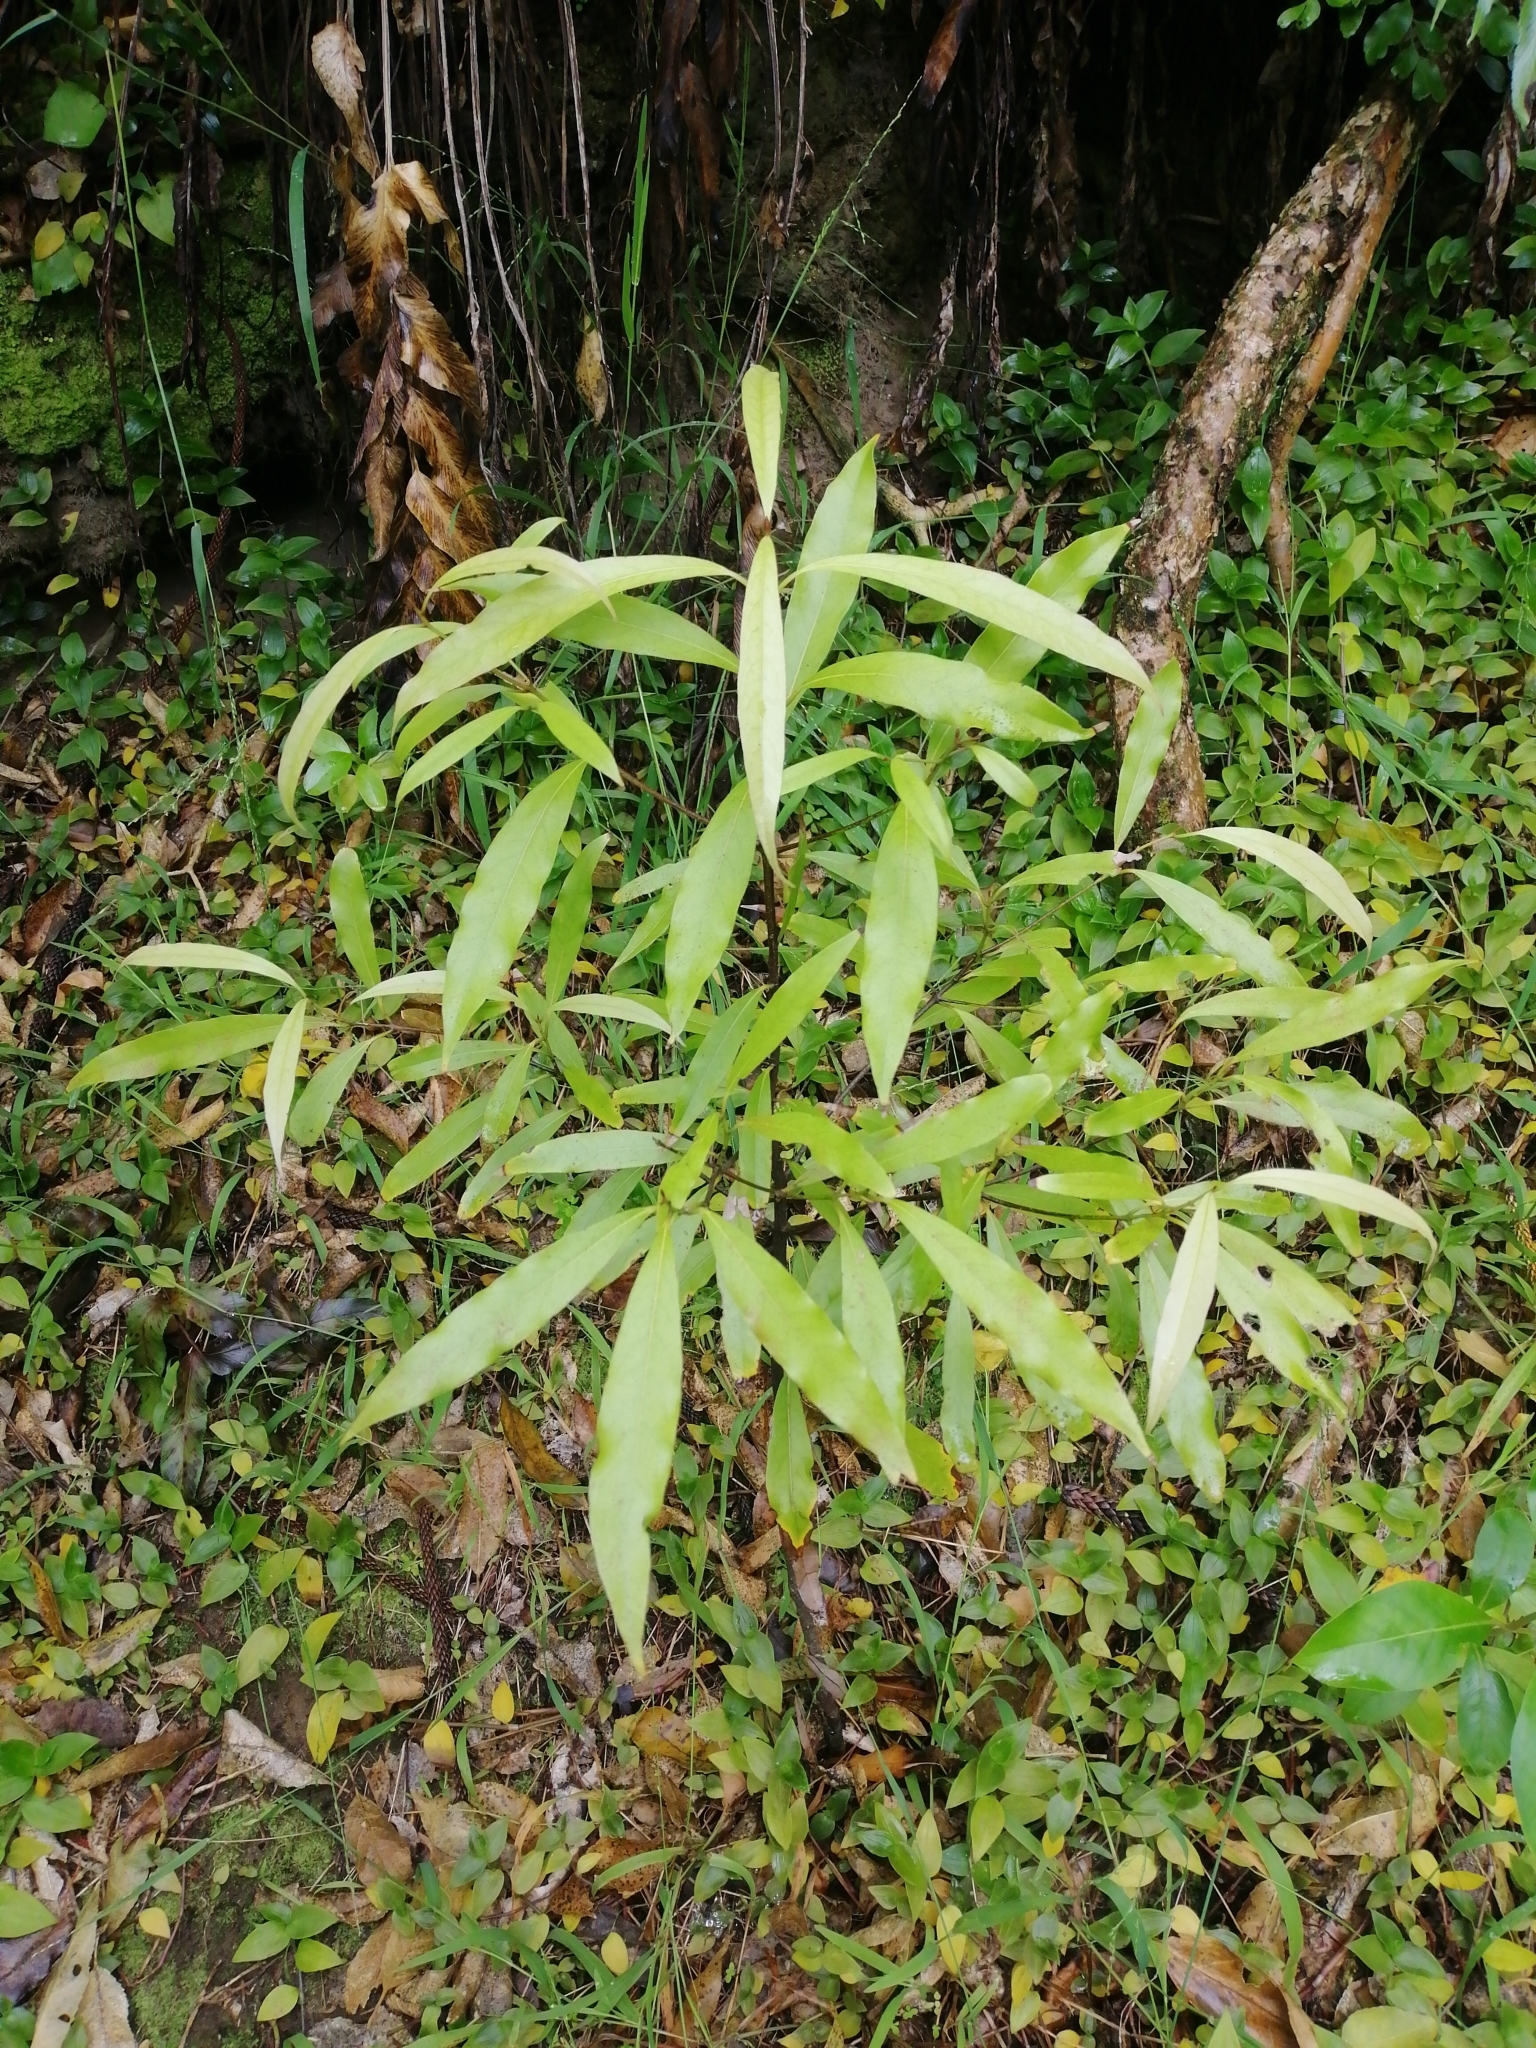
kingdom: Plantae
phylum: Tracheophyta
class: Magnoliopsida
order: Laurales
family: Lauraceae
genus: Beilschmiedia
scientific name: Beilschmiedia tawa
